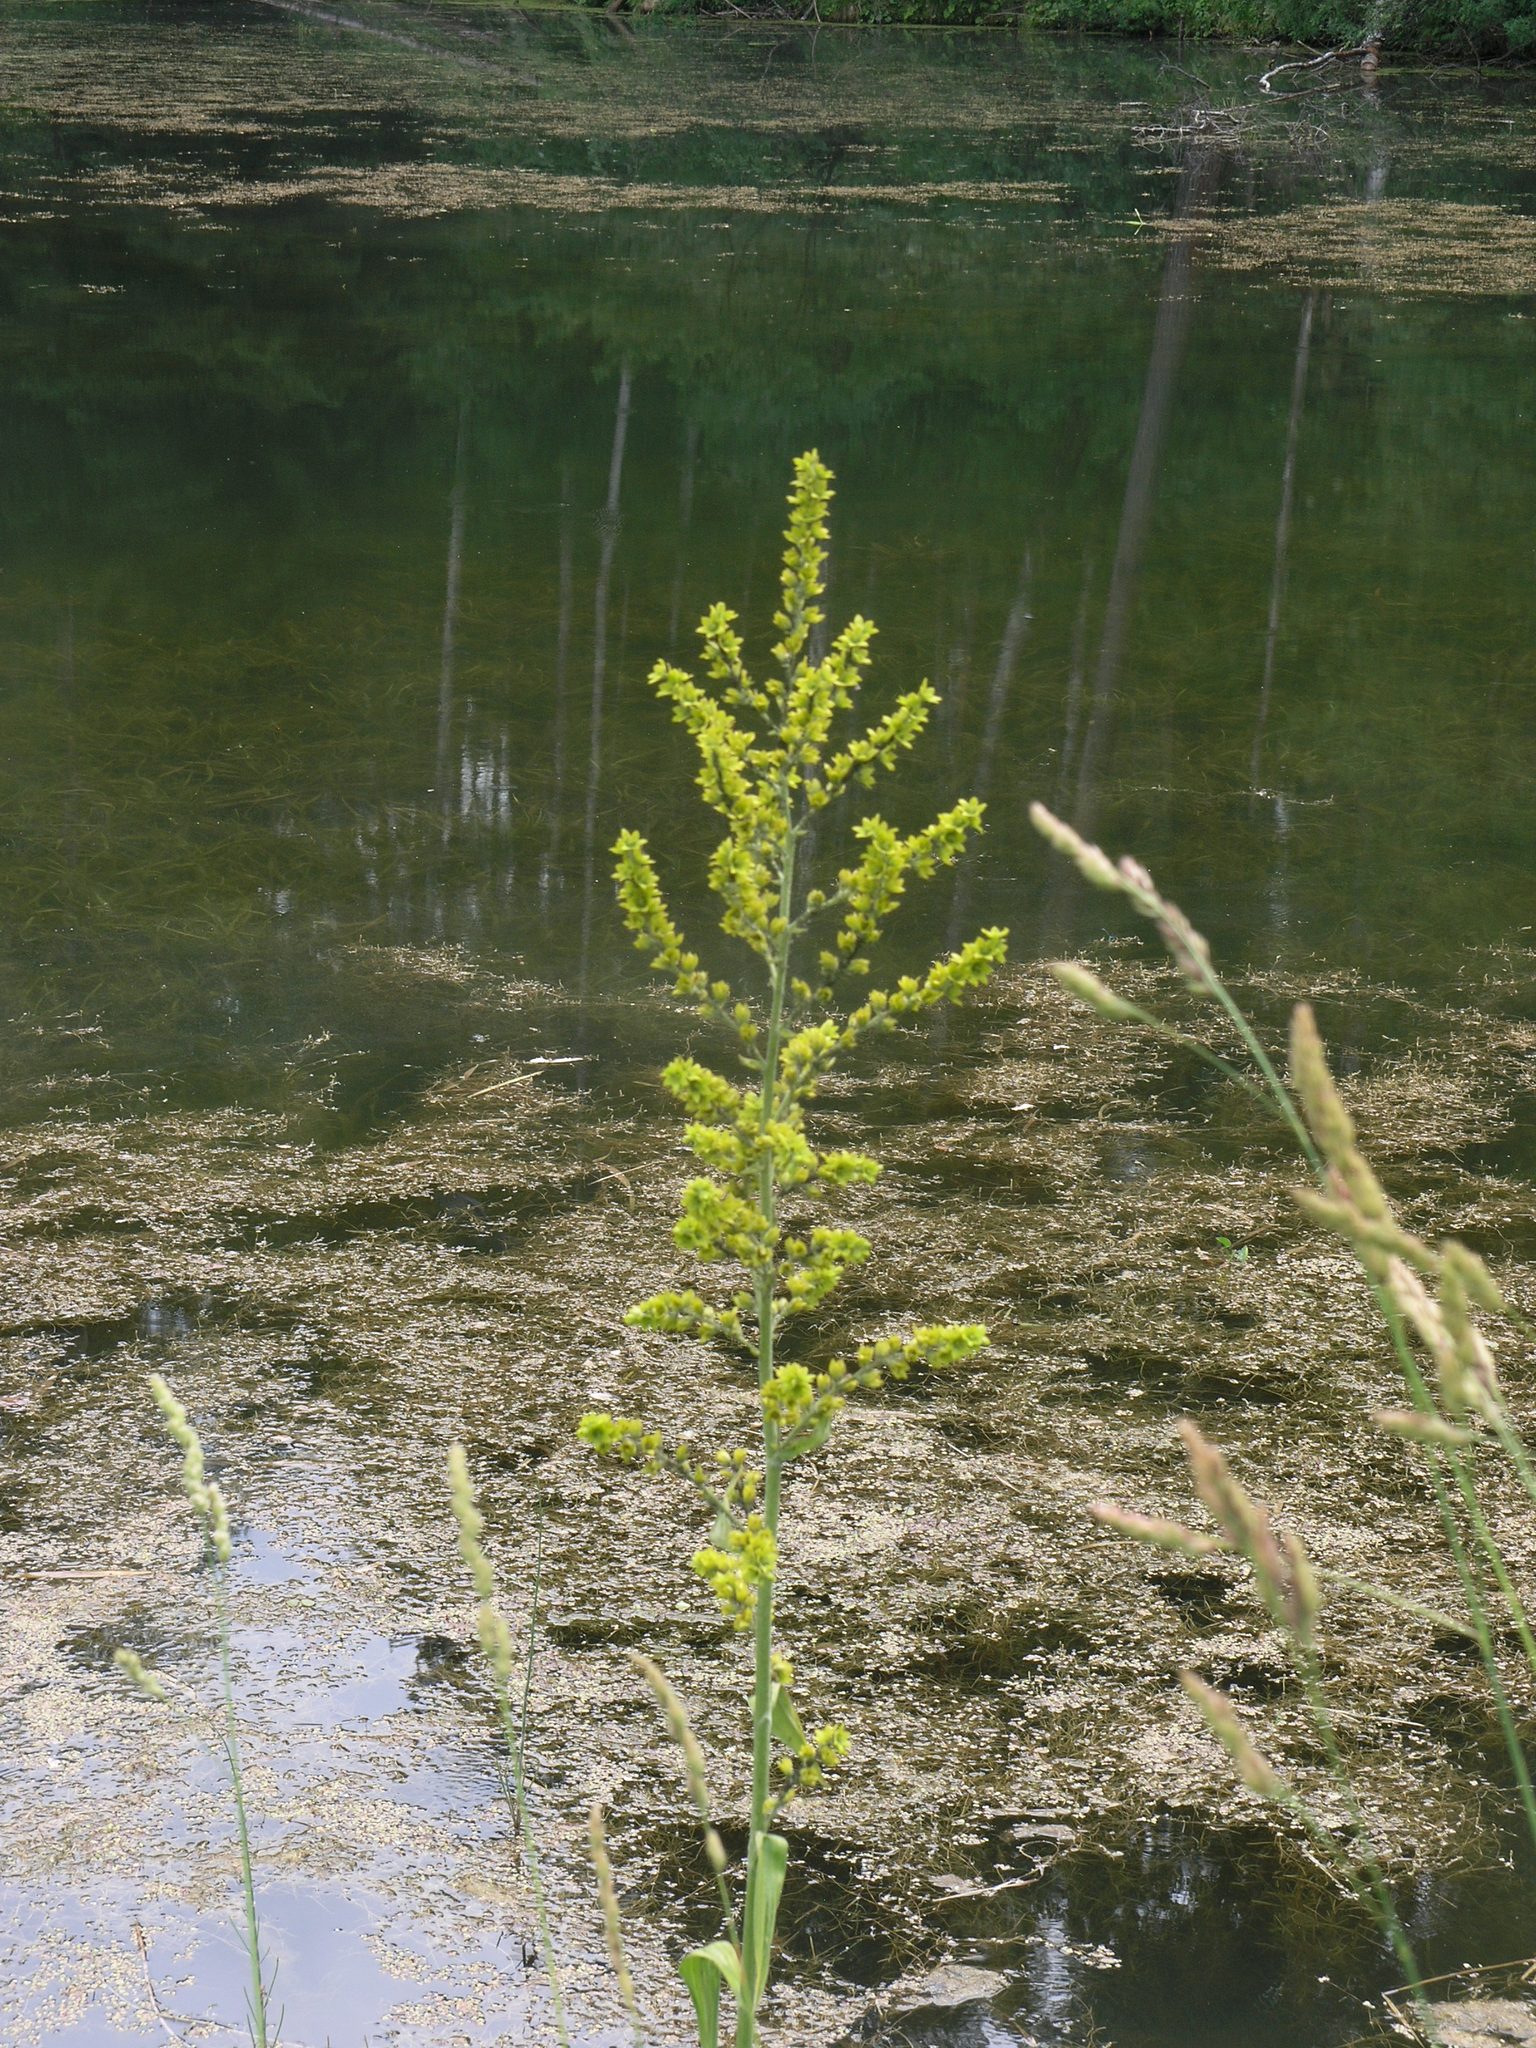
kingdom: Plantae
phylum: Tracheophyta
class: Liliopsida
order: Liliales
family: Melanthiaceae
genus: Veratrum
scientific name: Veratrum lobelianum
